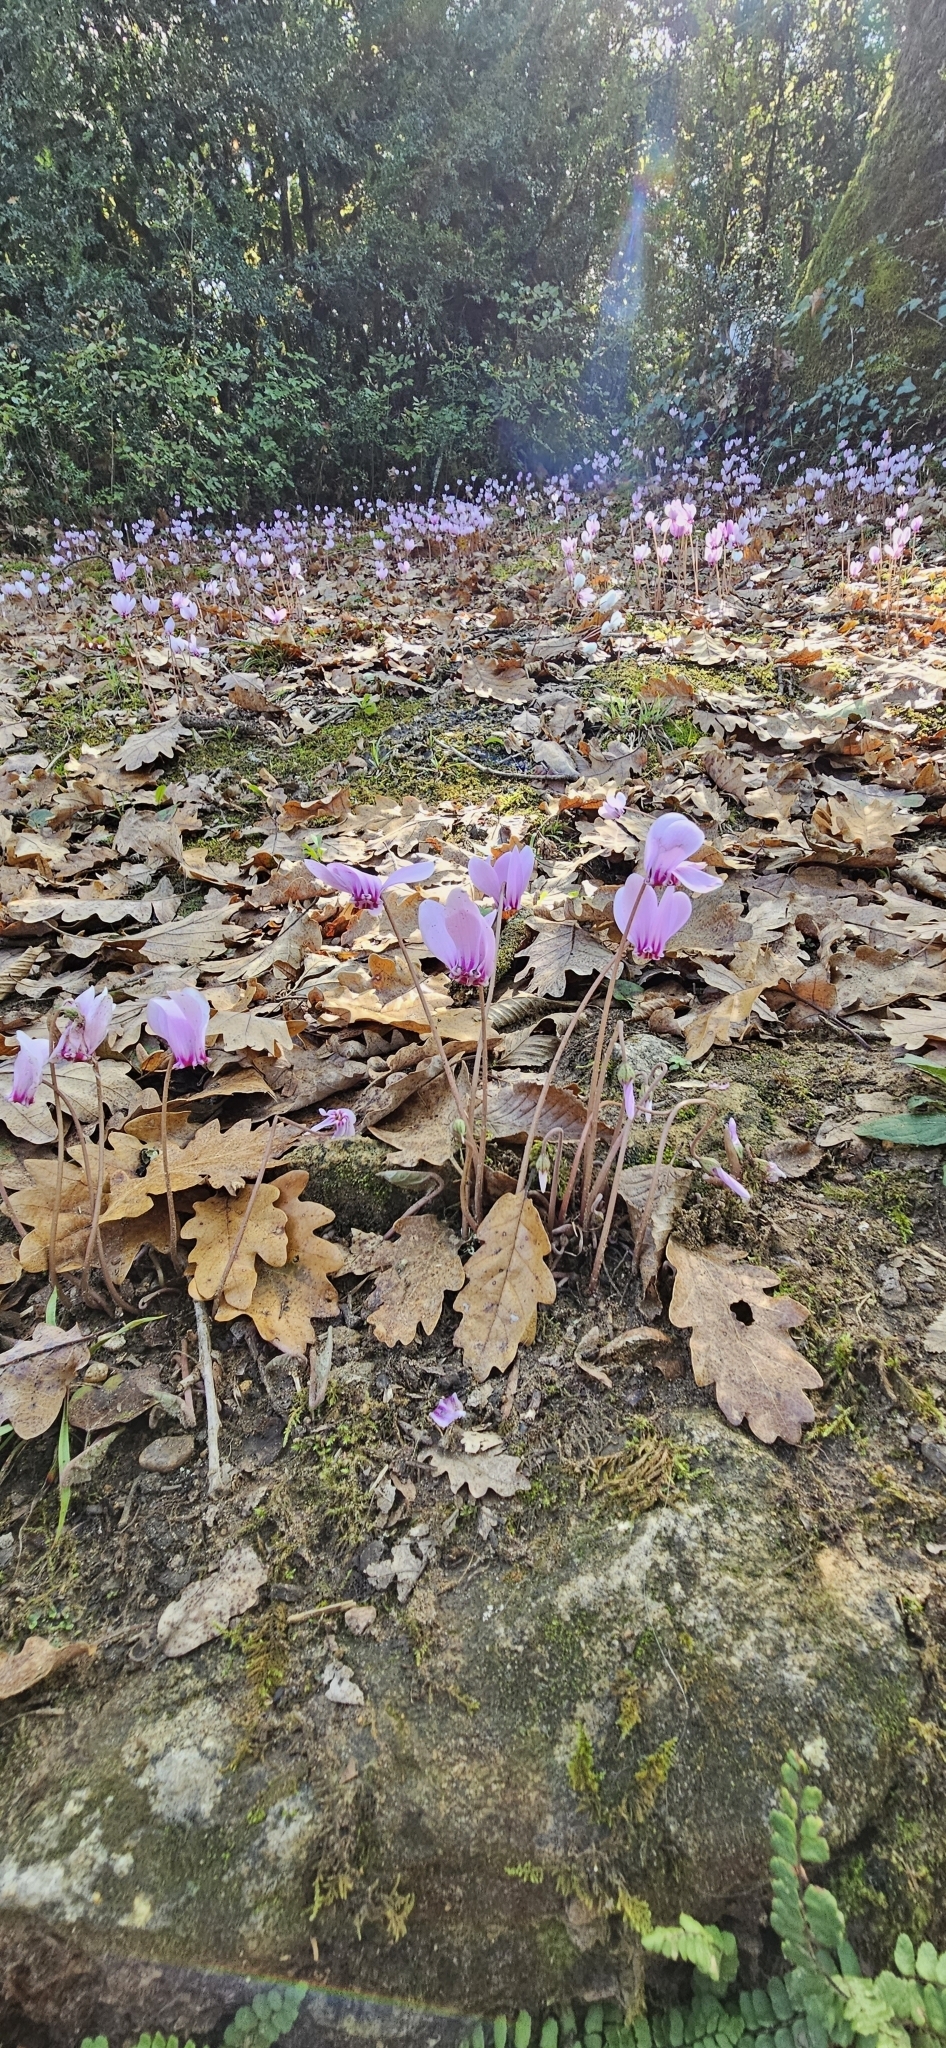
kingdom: Plantae
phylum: Tracheophyta
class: Magnoliopsida
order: Ericales
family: Primulaceae
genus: Cyclamen
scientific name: Cyclamen hederifolium
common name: Sowbread
